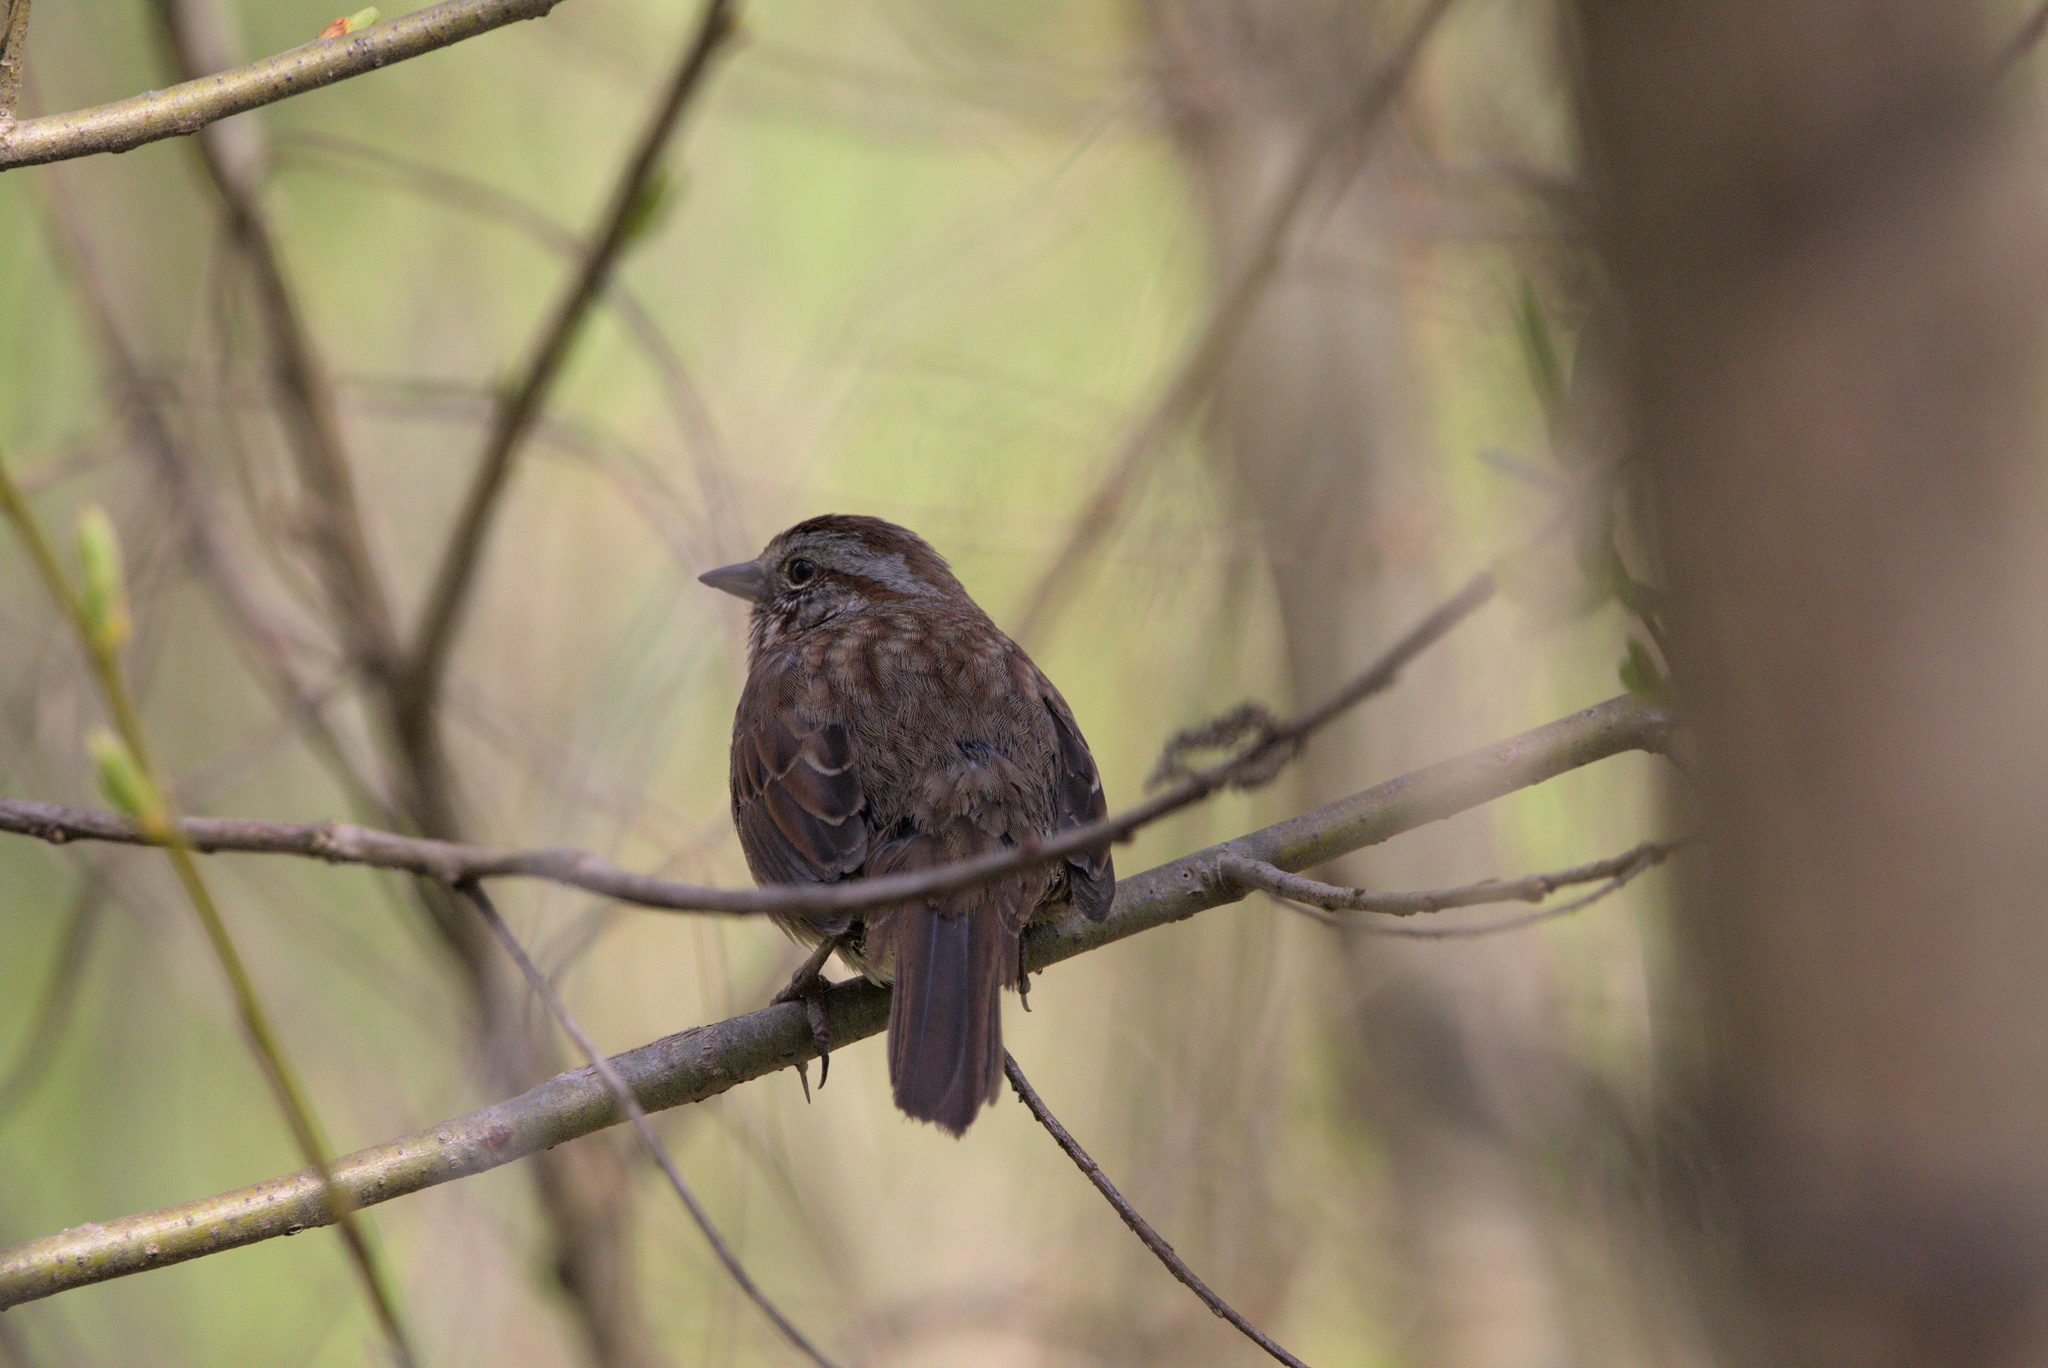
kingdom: Animalia
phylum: Chordata
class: Aves
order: Passeriformes
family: Passerellidae
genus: Melospiza
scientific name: Melospiza melodia
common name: Song sparrow
